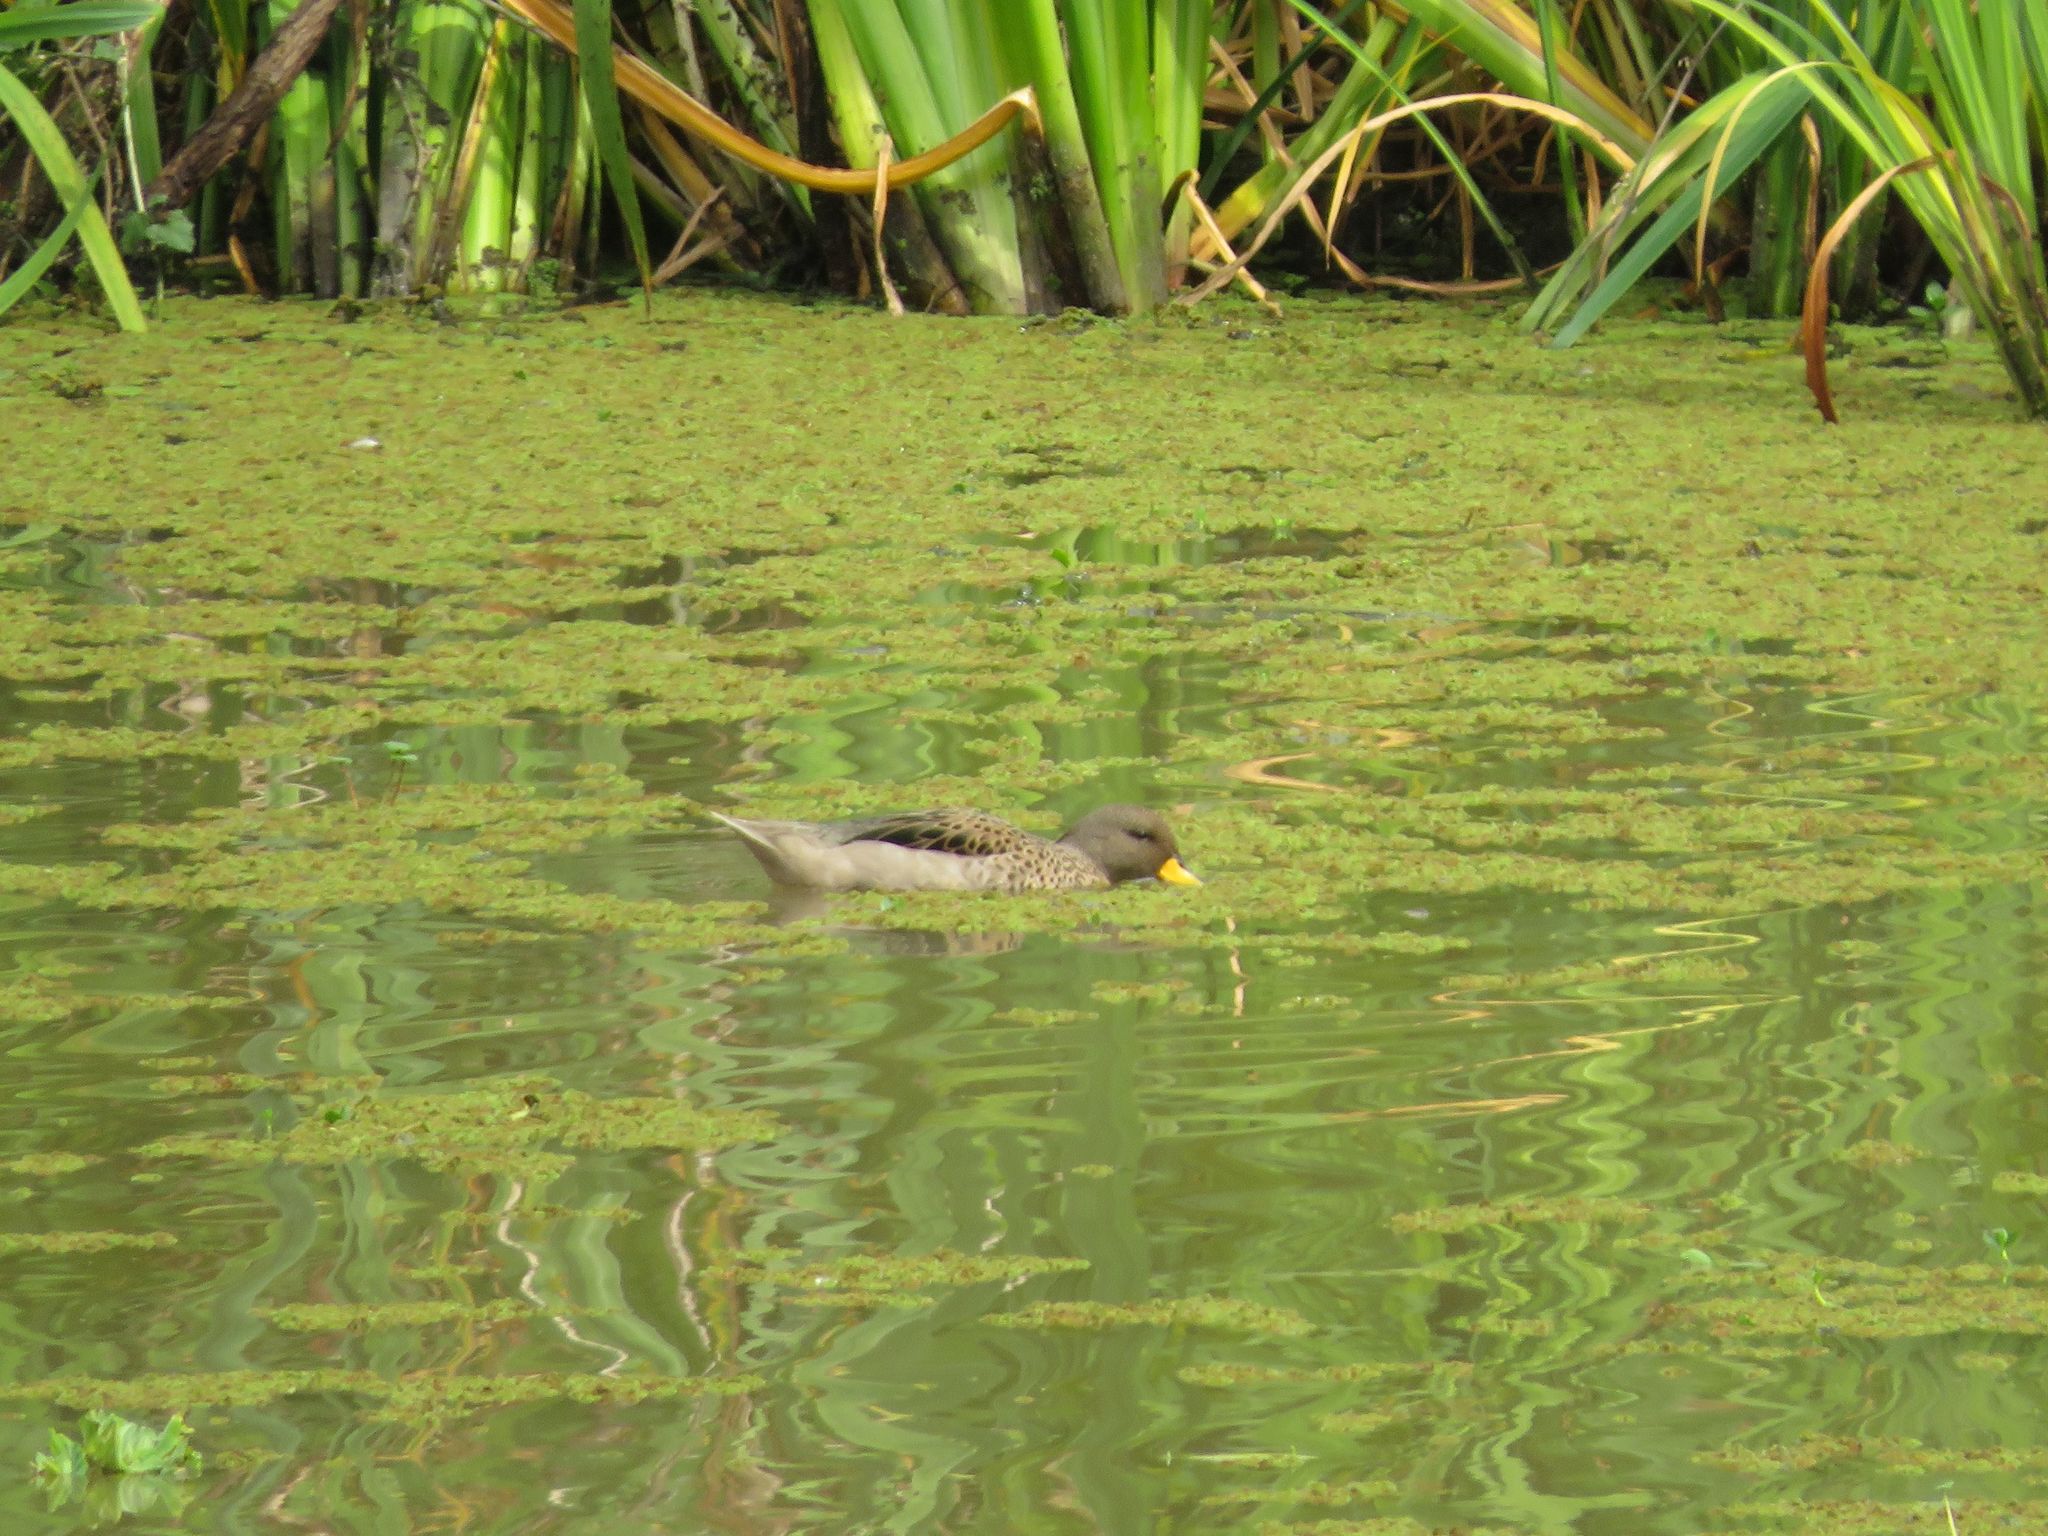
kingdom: Animalia
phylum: Chordata
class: Aves
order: Anseriformes
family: Anatidae
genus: Anas
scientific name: Anas flavirostris
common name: Yellow-billed teal
